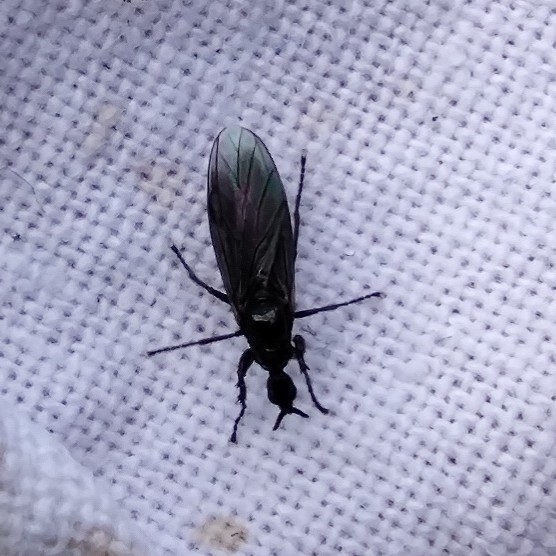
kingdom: Animalia
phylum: Arthropoda
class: Insecta
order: Diptera
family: Bibionidae
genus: Dilophus
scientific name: Dilophus febrilis
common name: Fever fly
